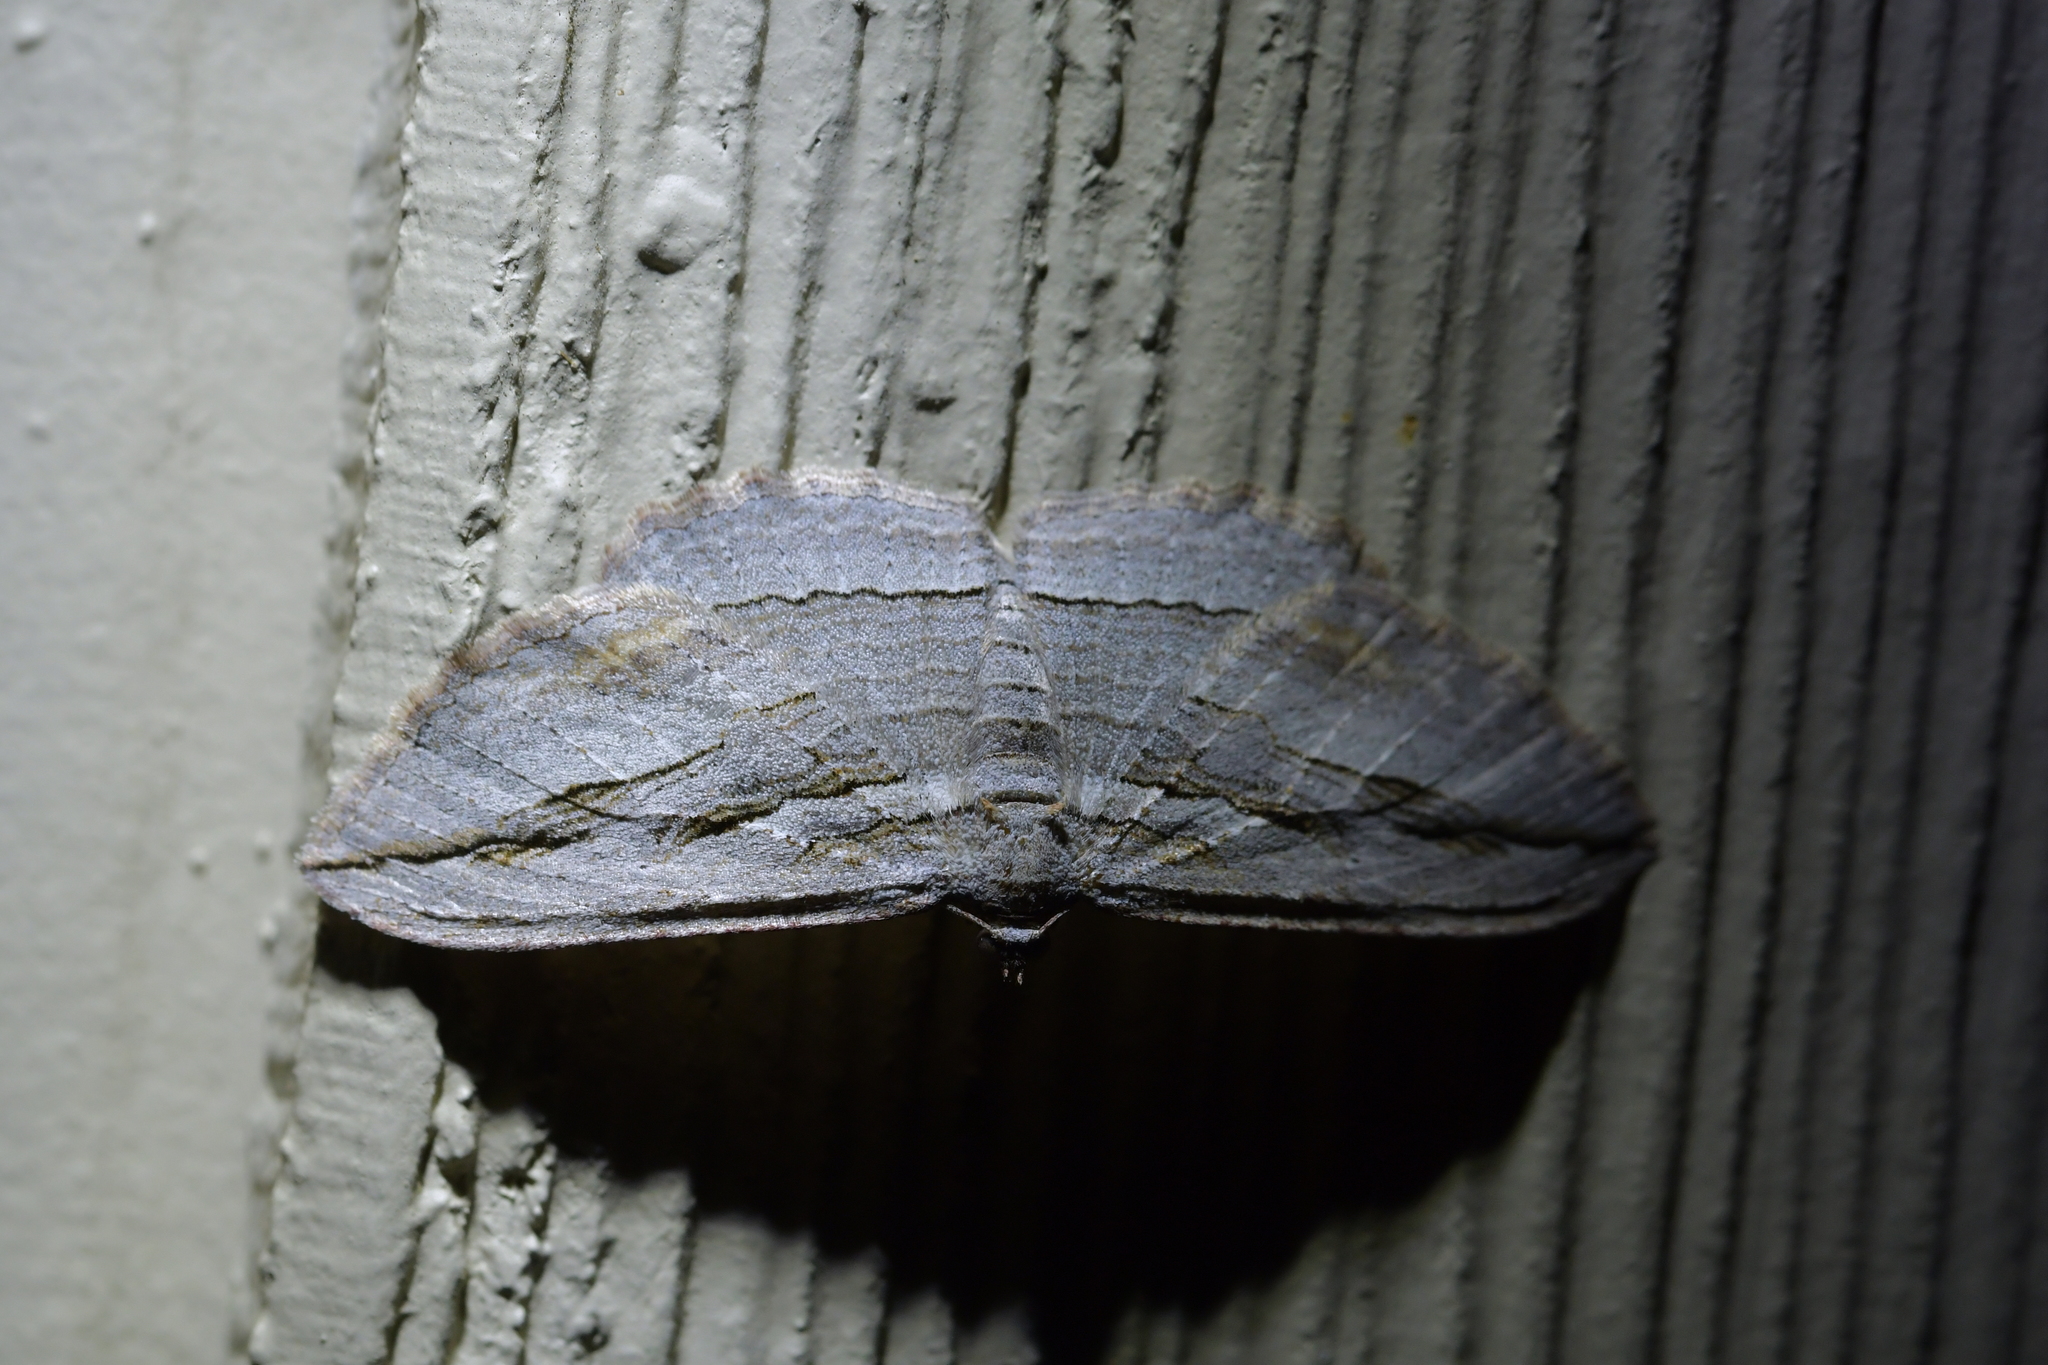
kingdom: Animalia
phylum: Arthropoda
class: Insecta
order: Lepidoptera
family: Geometridae
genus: Austrocidaria
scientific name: Austrocidaria gobiata
